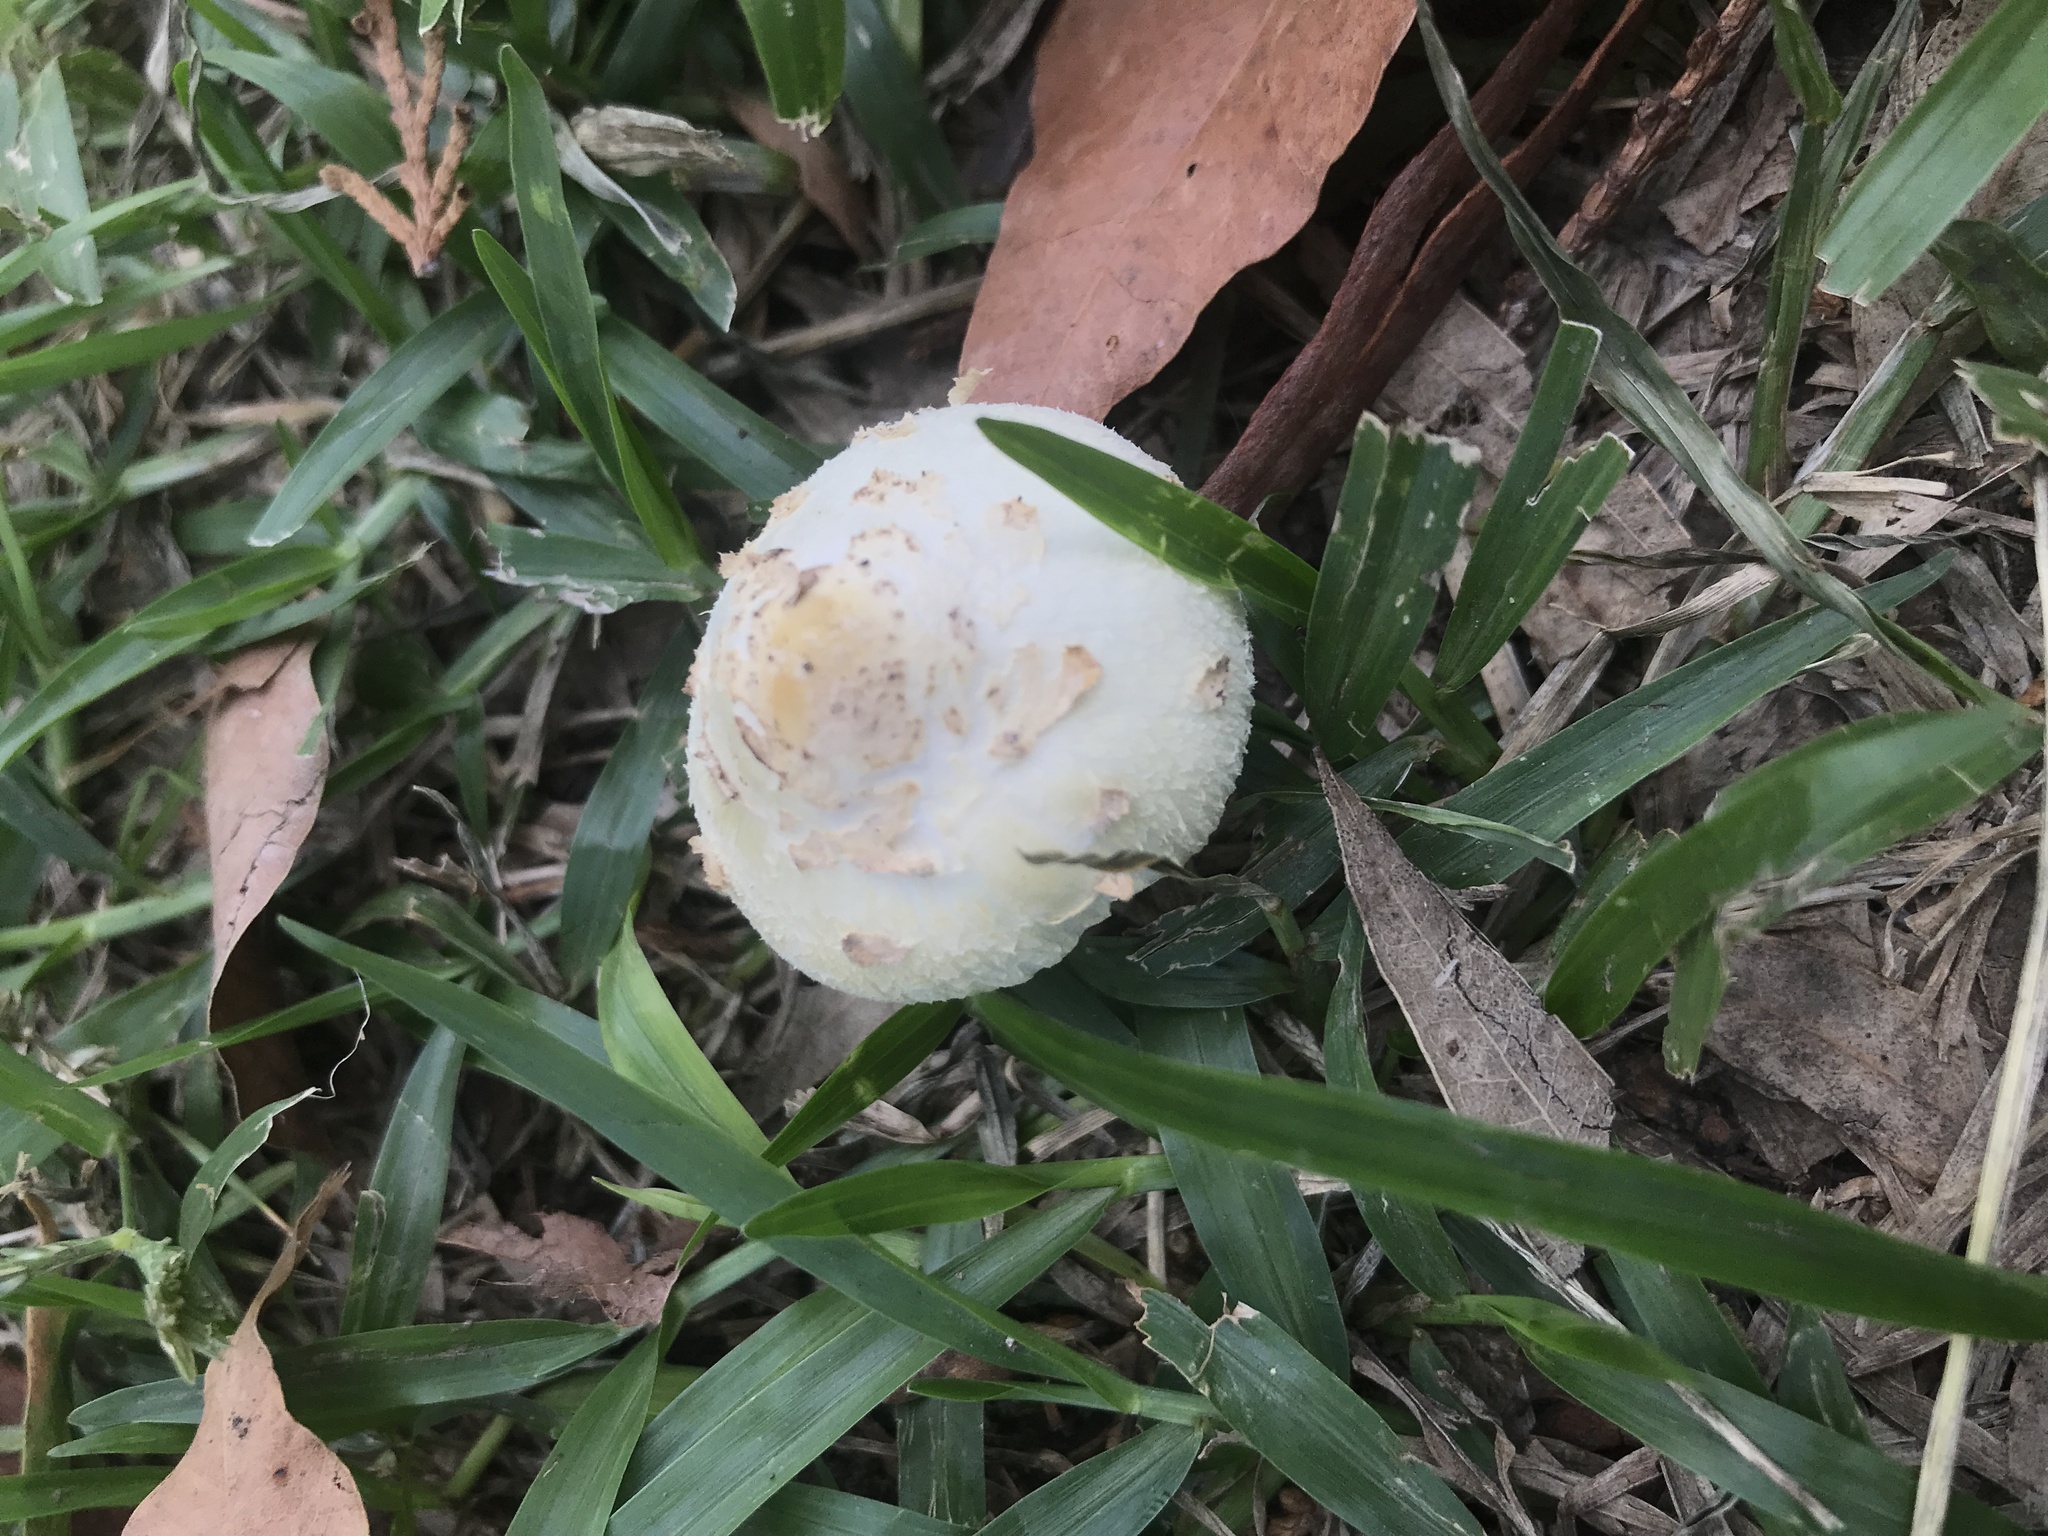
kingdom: Fungi
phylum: Basidiomycota
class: Agaricomycetes
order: Agaricales
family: Agaricaceae
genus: Chlorophyllum
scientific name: Chlorophyllum hortense
